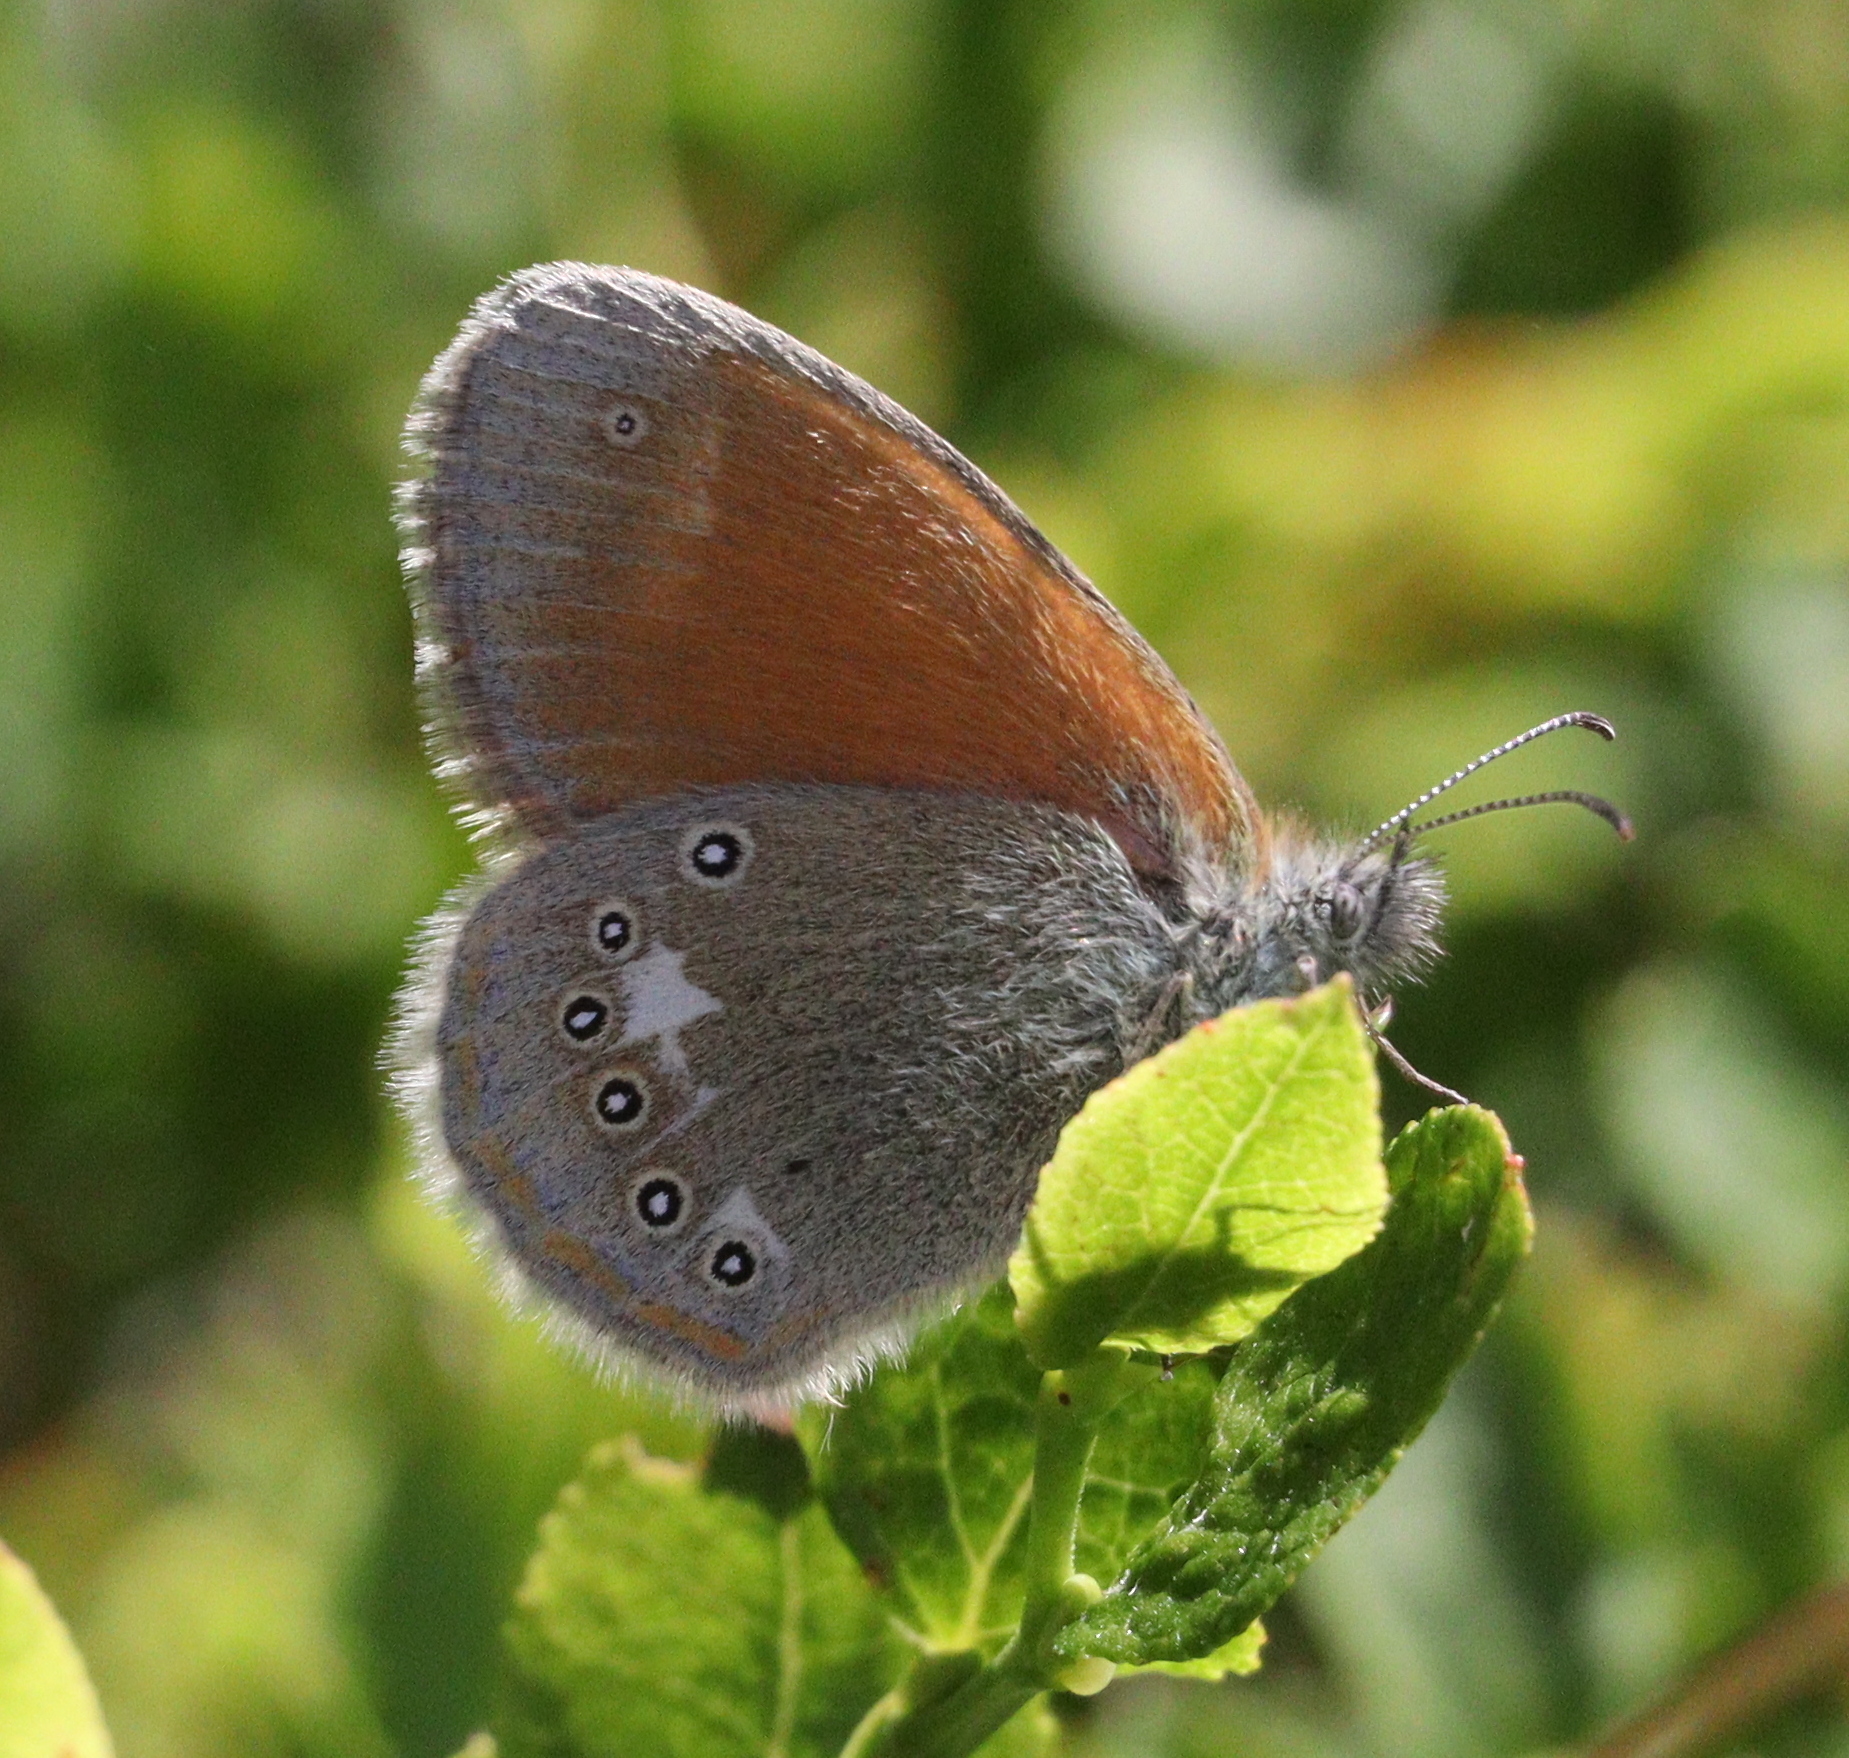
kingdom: Animalia
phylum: Arthropoda
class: Insecta
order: Lepidoptera
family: Nymphalidae
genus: Coenonympha
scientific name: Coenonympha iphis
